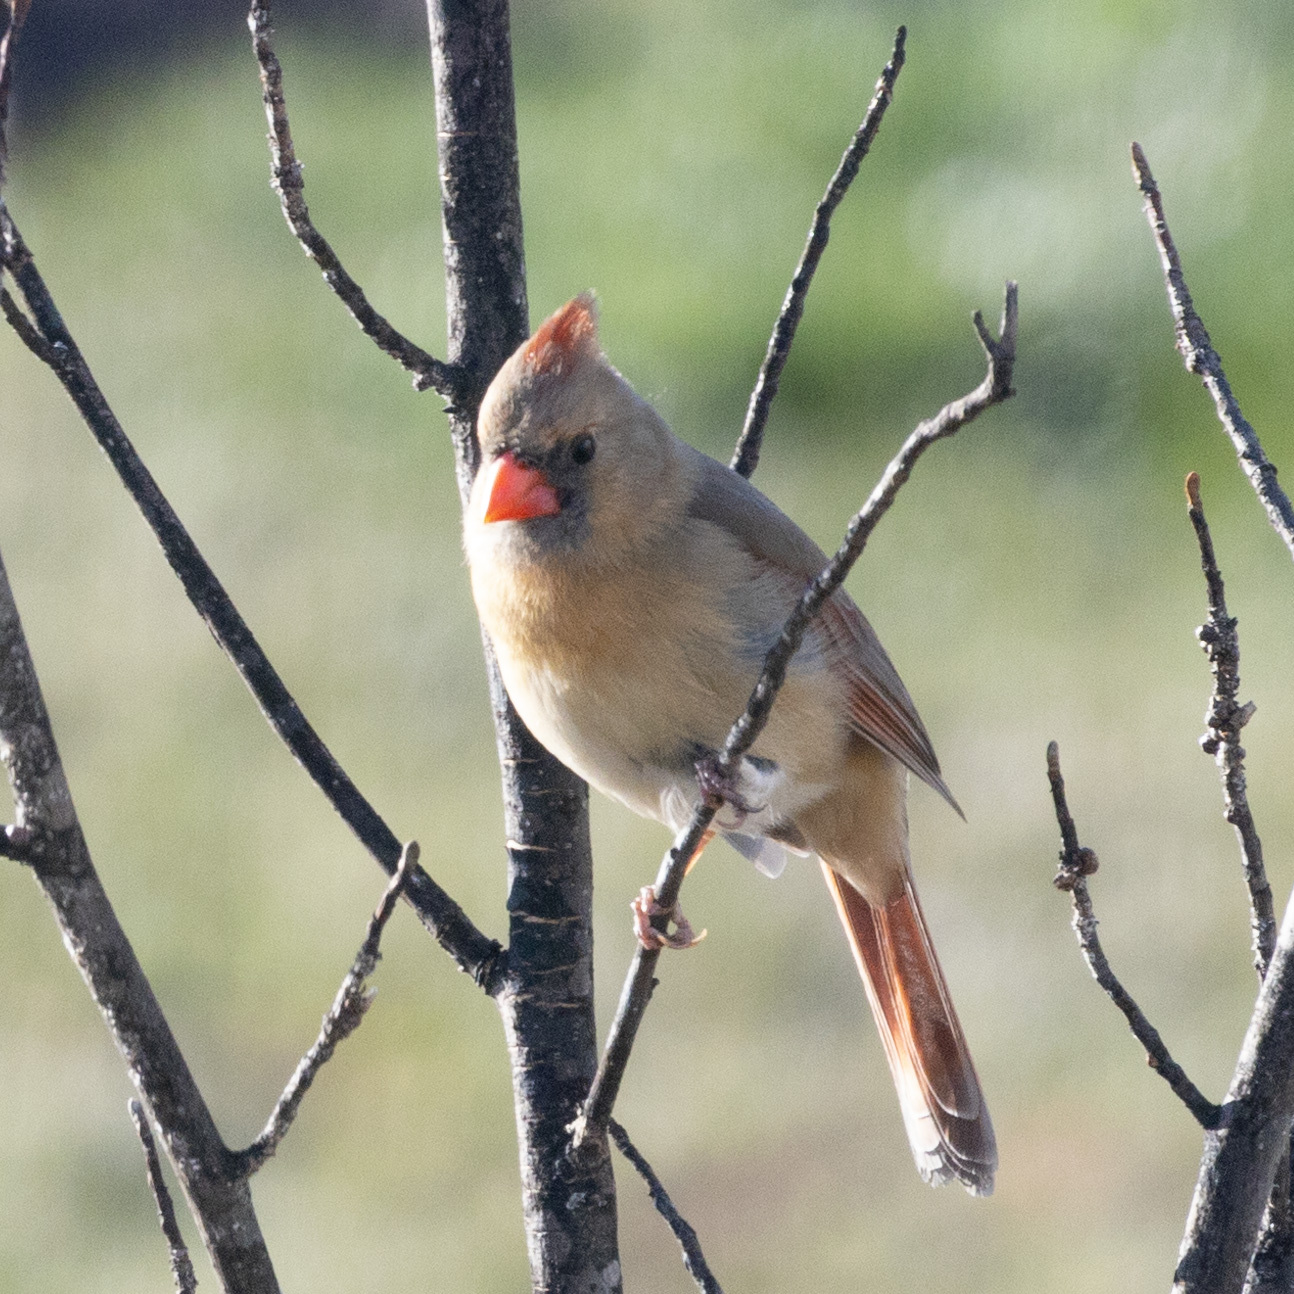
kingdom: Animalia
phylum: Chordata
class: Aves
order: Passeriformes
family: Cardinalidae
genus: Cardinalis
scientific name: Cardinalis cardinalis
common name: Northern cardinal
